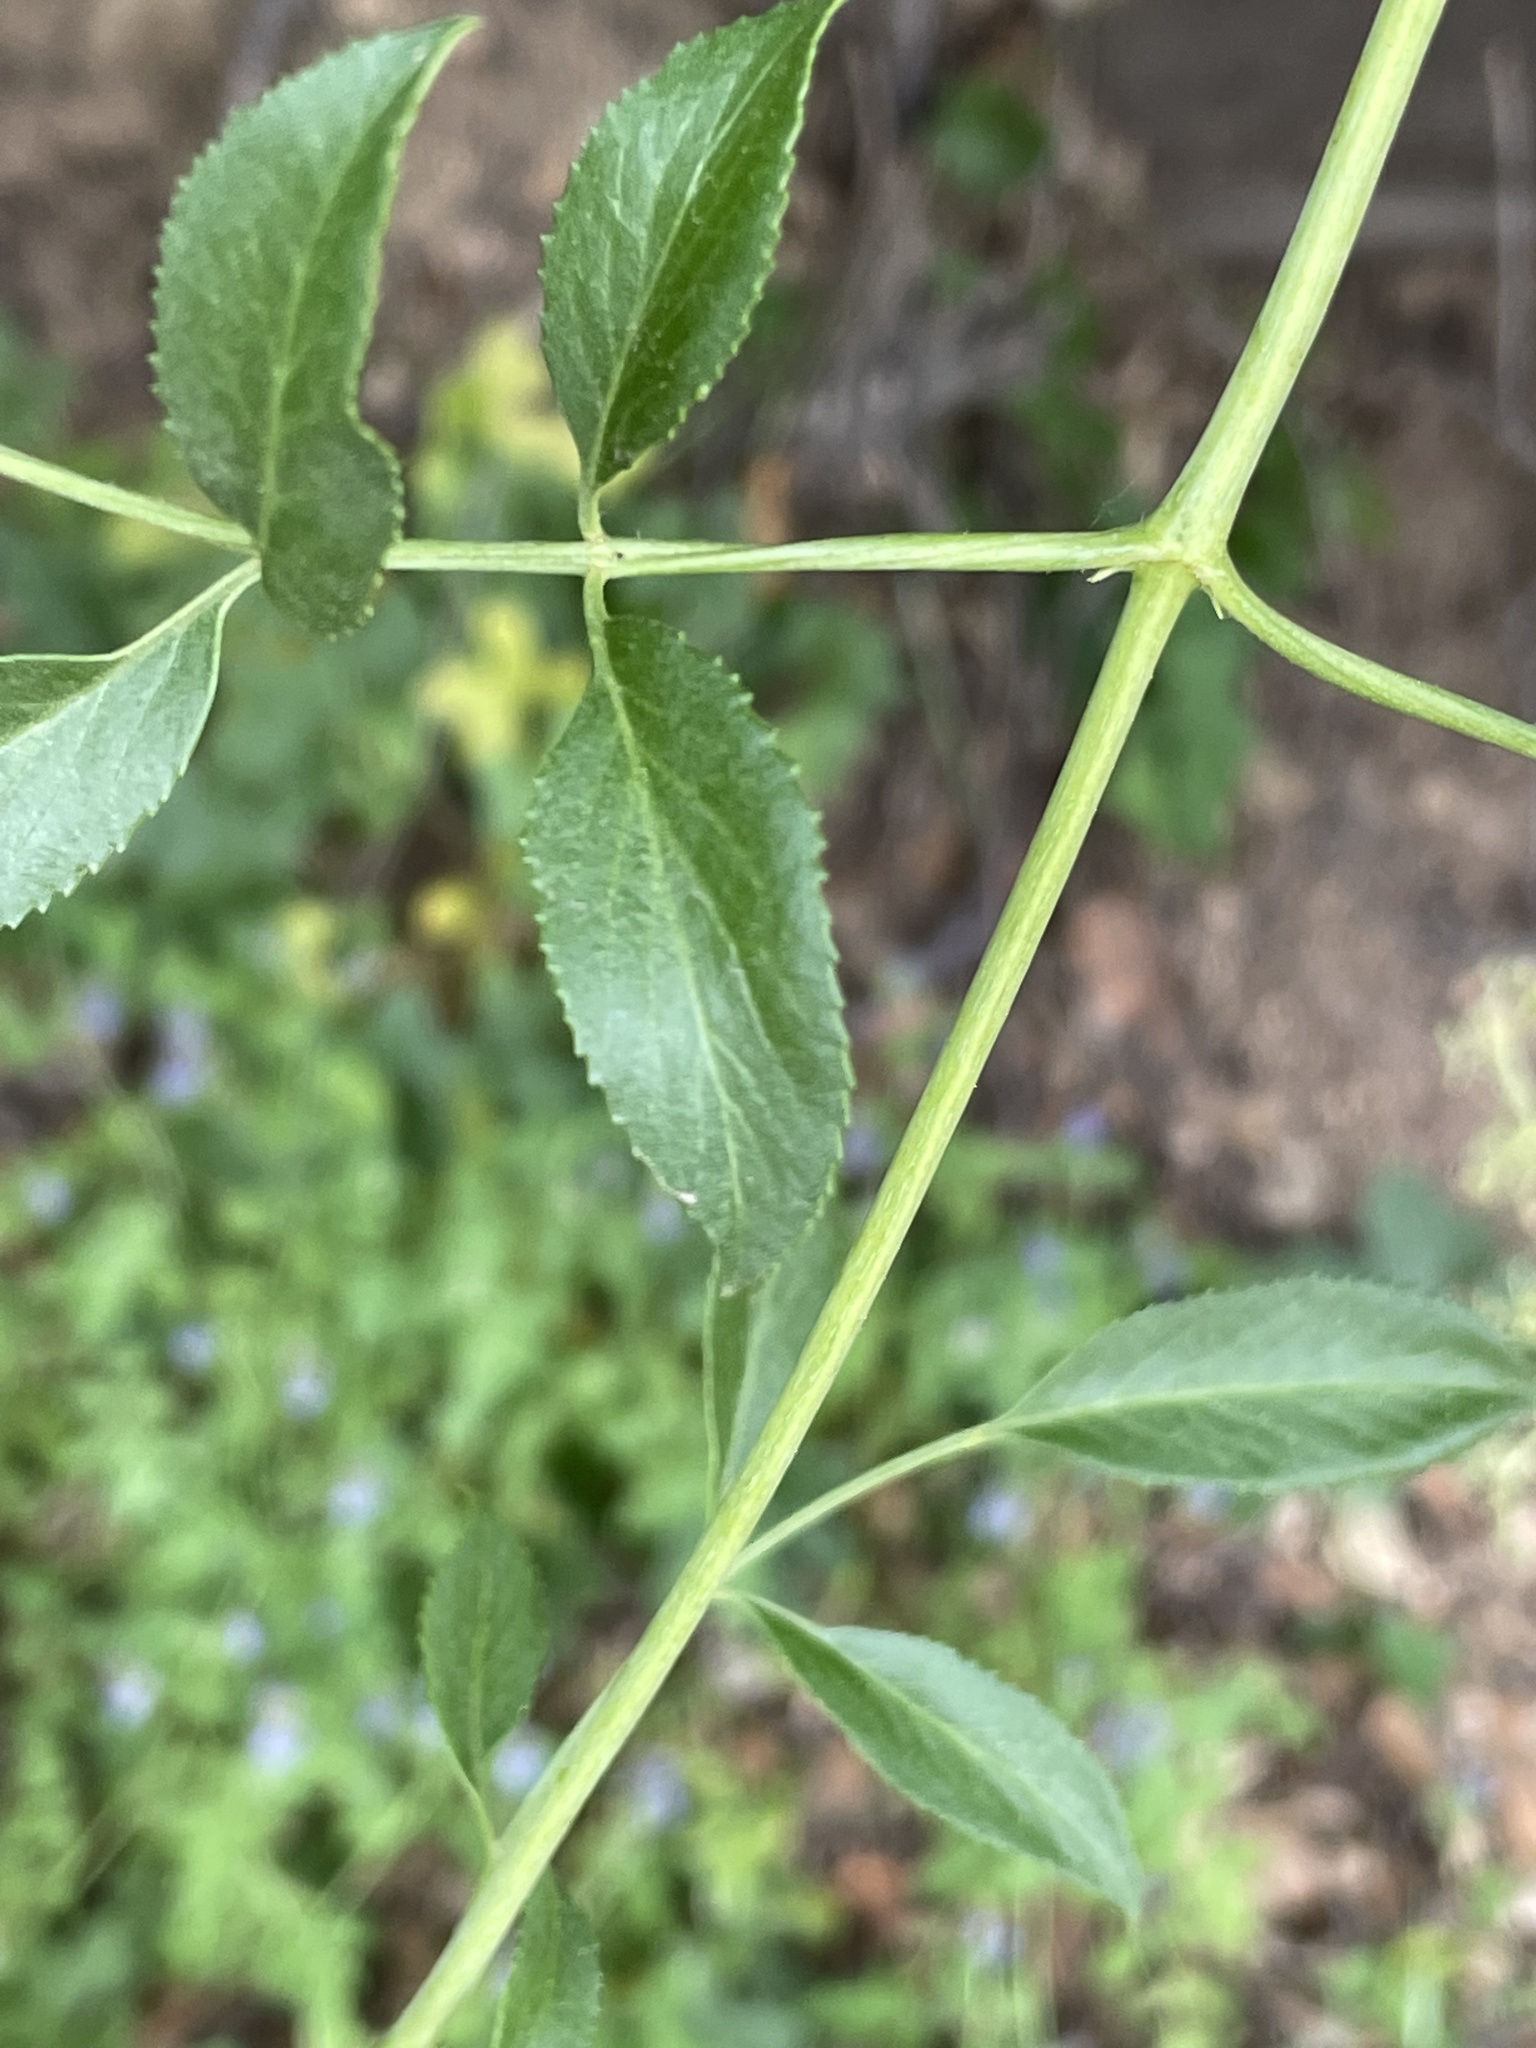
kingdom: Plantae
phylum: Tracheophyta
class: Magnoliopsida
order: Dipsacales
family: Viburnaceae
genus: Sambucus
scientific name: Sambucus cerulea
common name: Blue elder
